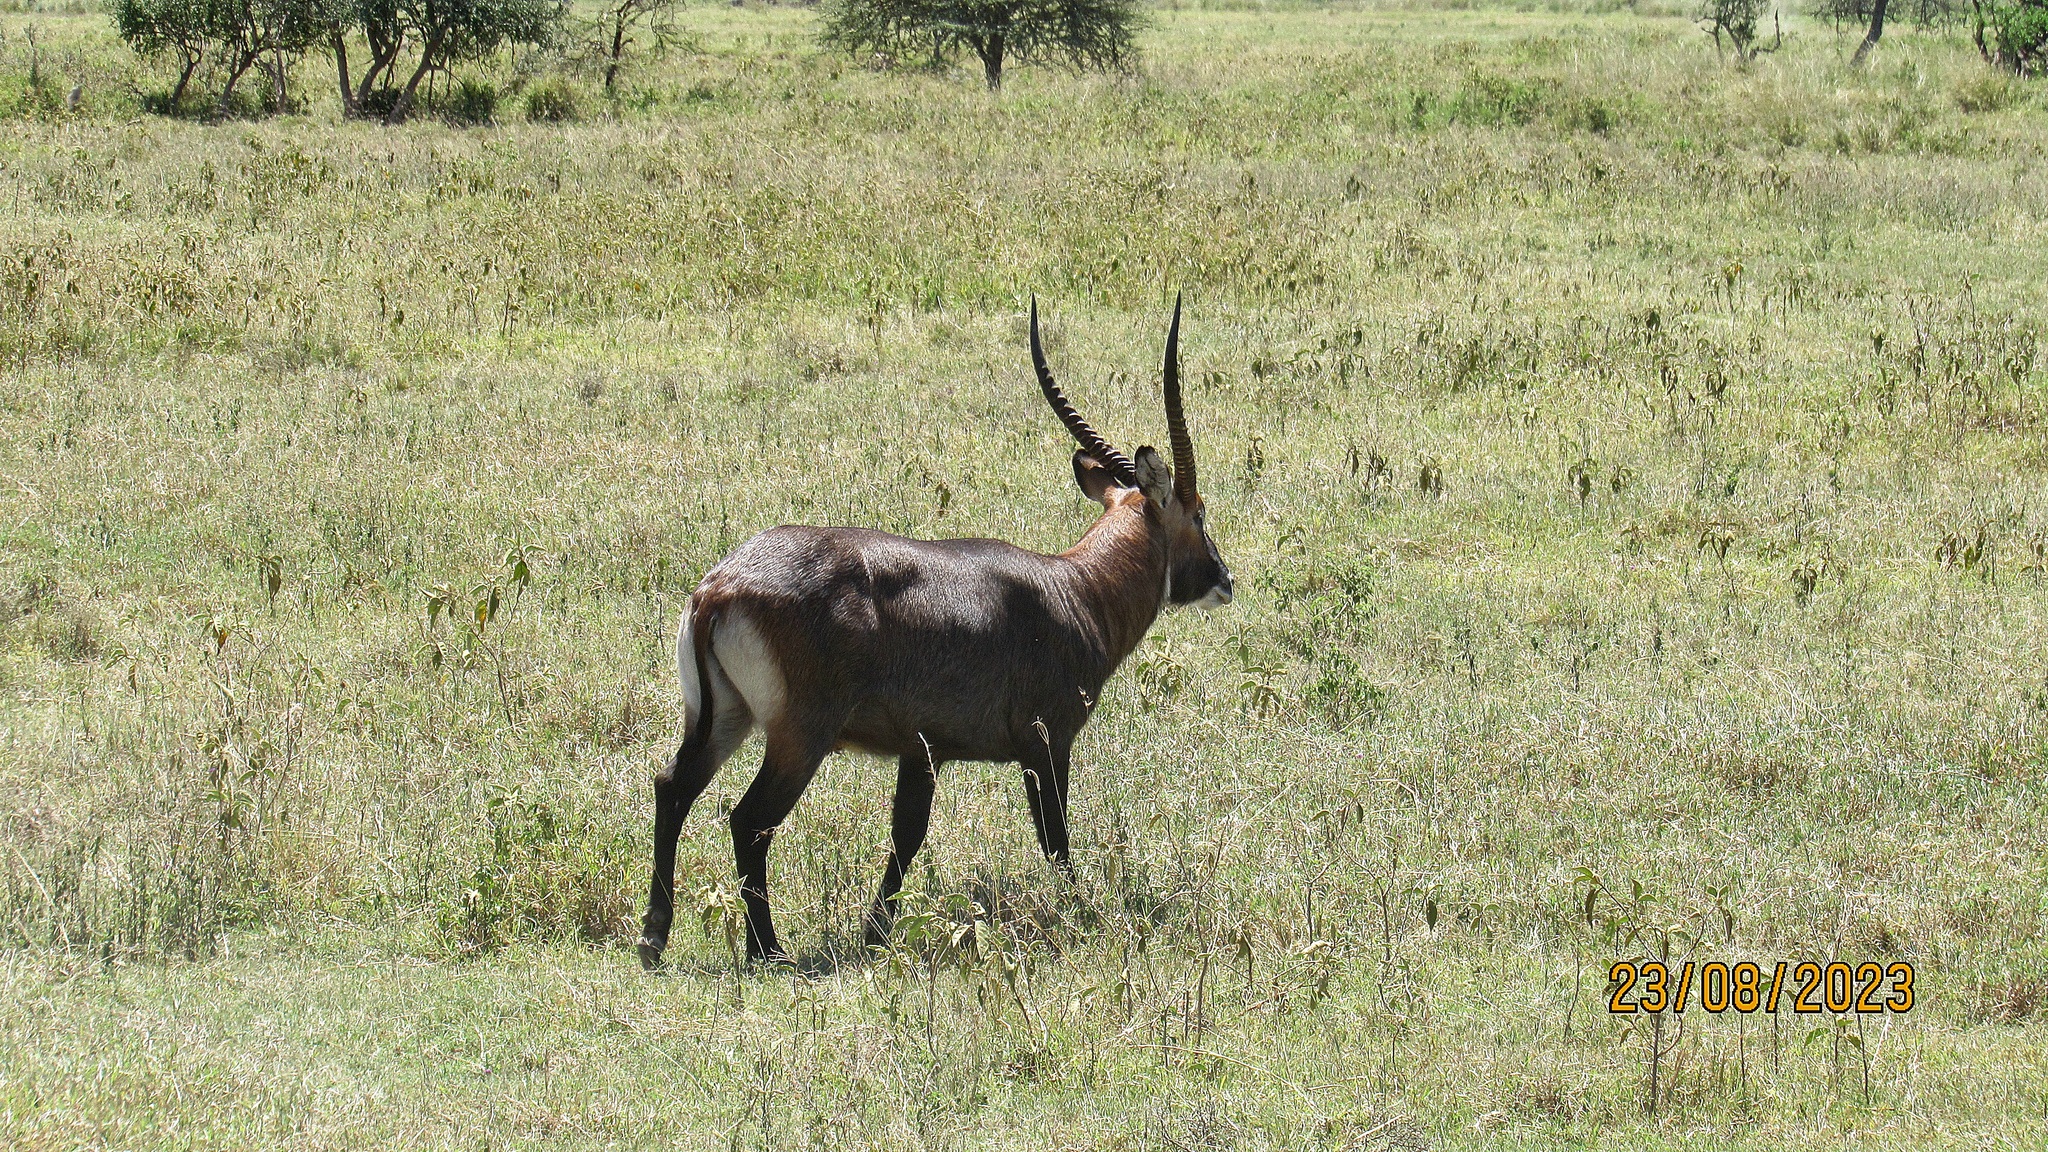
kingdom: Animalia
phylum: Chordata
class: Mammalia
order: Artiodactyla
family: Bovidae
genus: Kobus
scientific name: Kobus ellipsiprymnus
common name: Waterbuck
